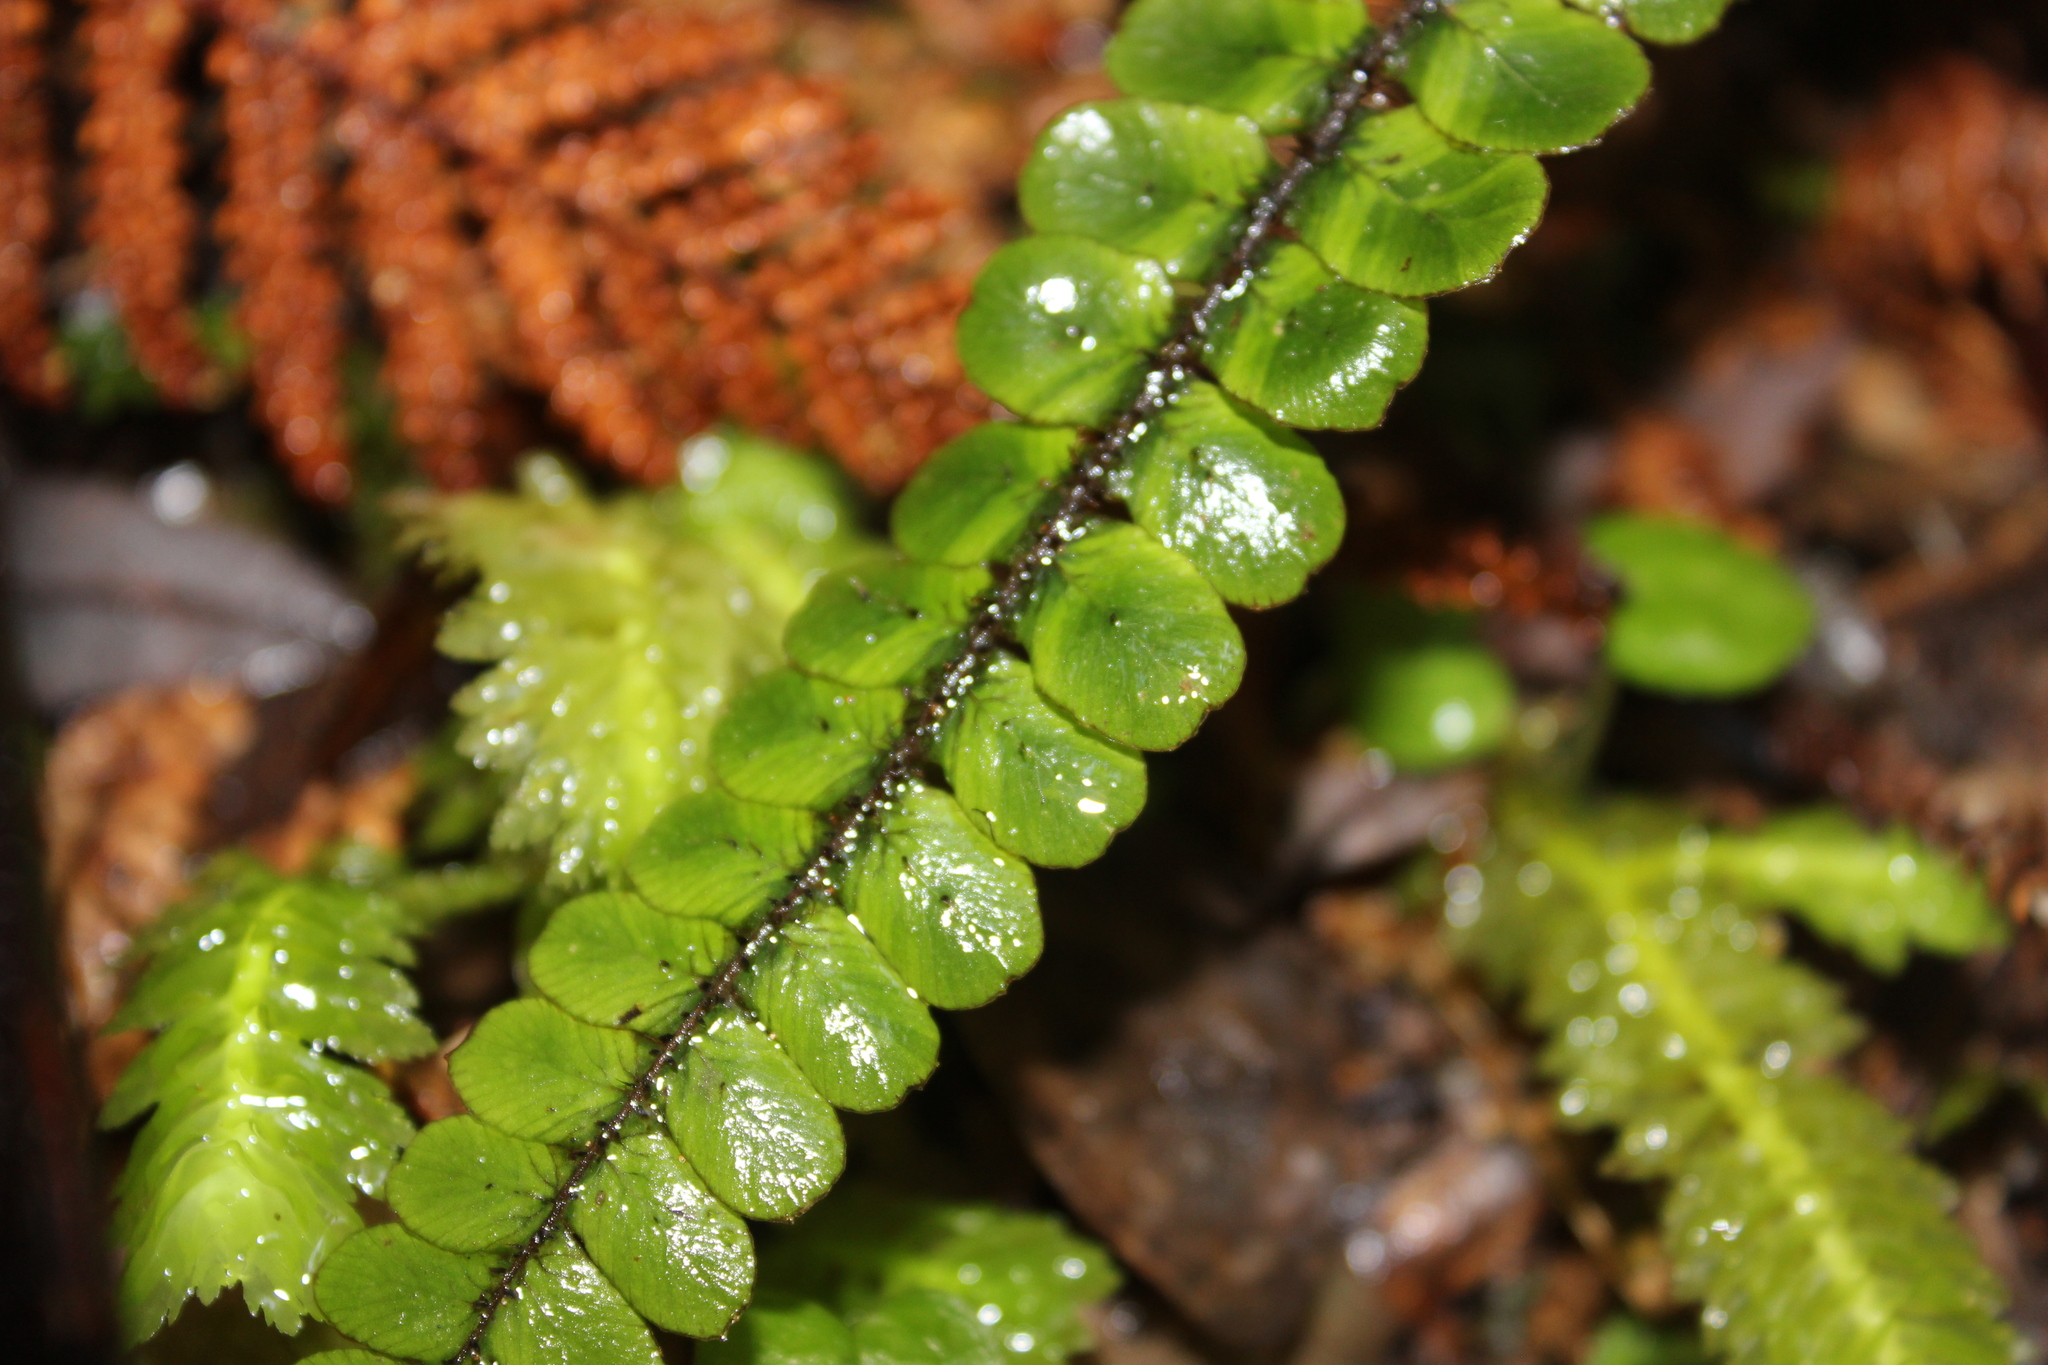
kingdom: Plantae
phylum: Tracheophyta
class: Polypodiopsida
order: Polypodiales
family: Blechnaceae
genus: Cranfillia
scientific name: Cranfillia fluviatilis
